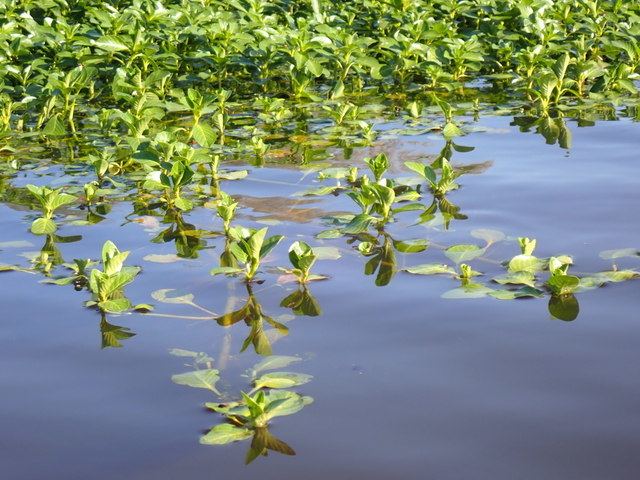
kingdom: Plantae
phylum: Tracheophyta
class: Magnoliopsida
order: Myrtales
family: Onagraceae
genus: Ludwigia
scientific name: Ludwigia peploides
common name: Floating primrose-willow
